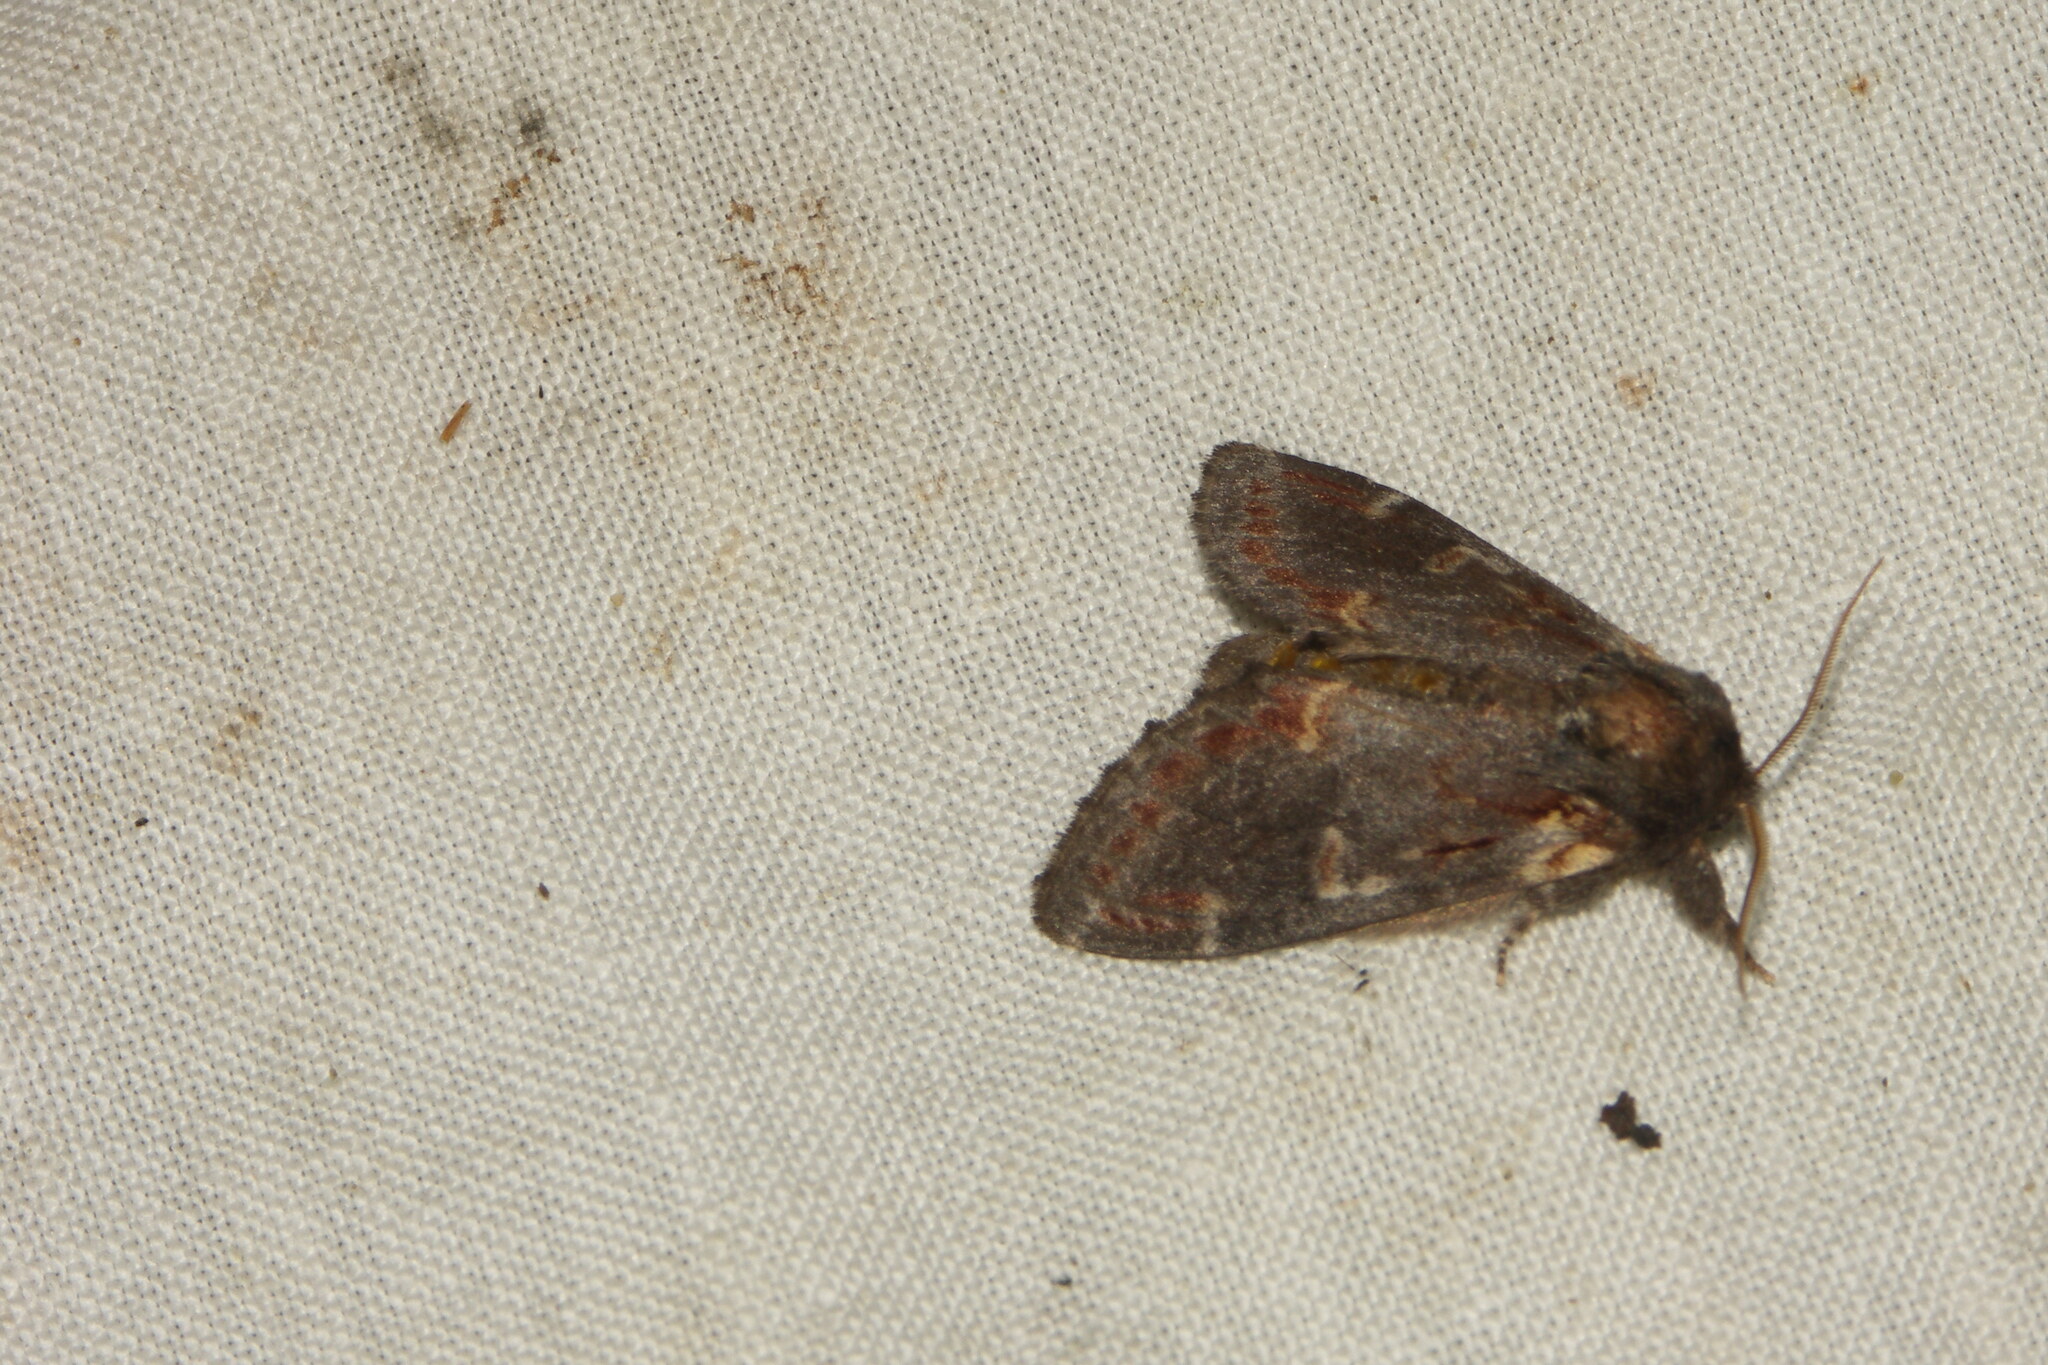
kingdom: Animalia
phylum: Arthropoda
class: Insecta
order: Lepidoptera
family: Notodontidae
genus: Notodonta
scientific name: Notodonta dromedarius
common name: Iron prominent
